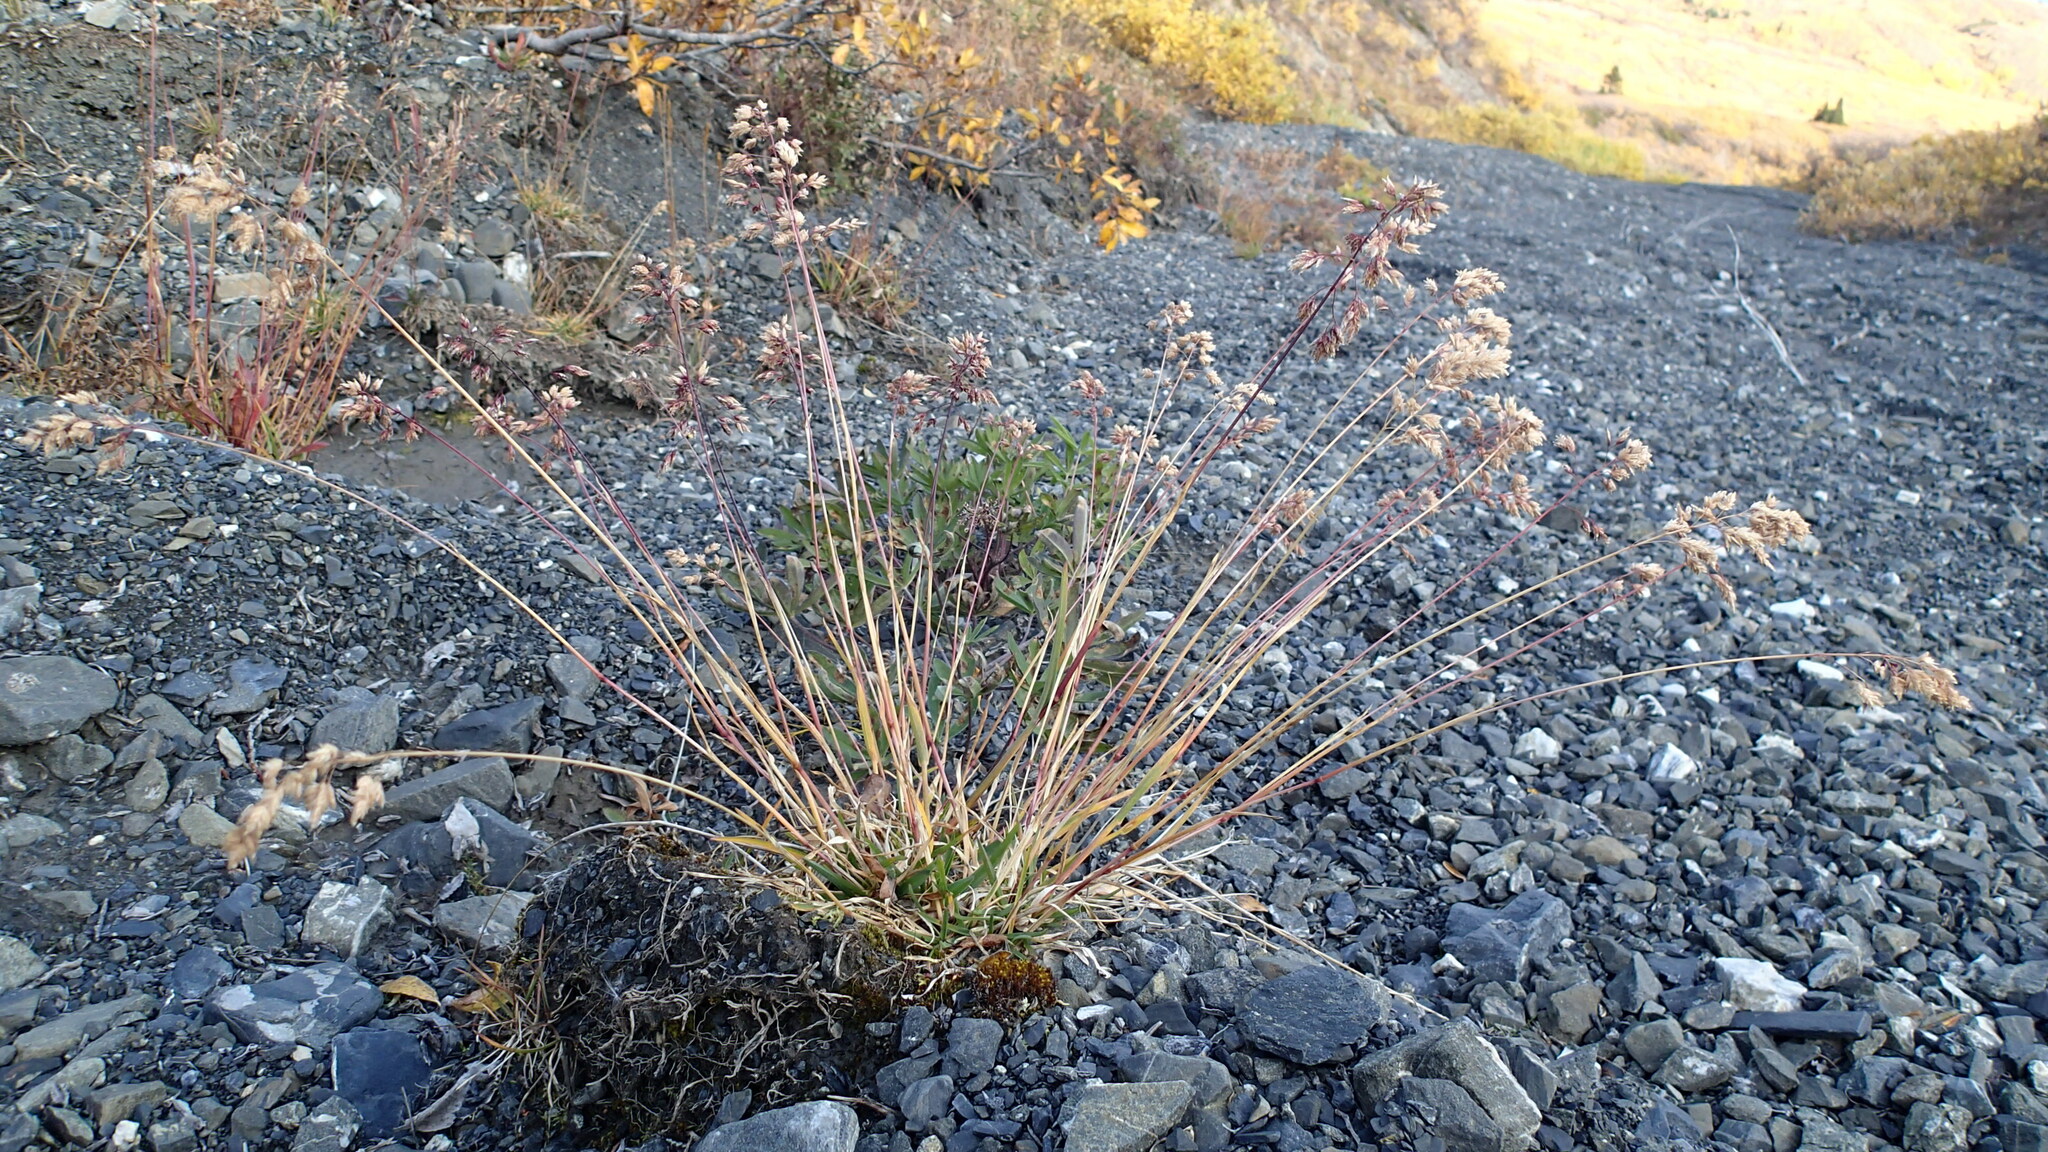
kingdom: Plantae
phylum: Tracheophyta
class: Liliopsida
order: Poales
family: Poaceae
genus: Poa
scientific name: Poa alpina
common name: Alpine bluegrass
